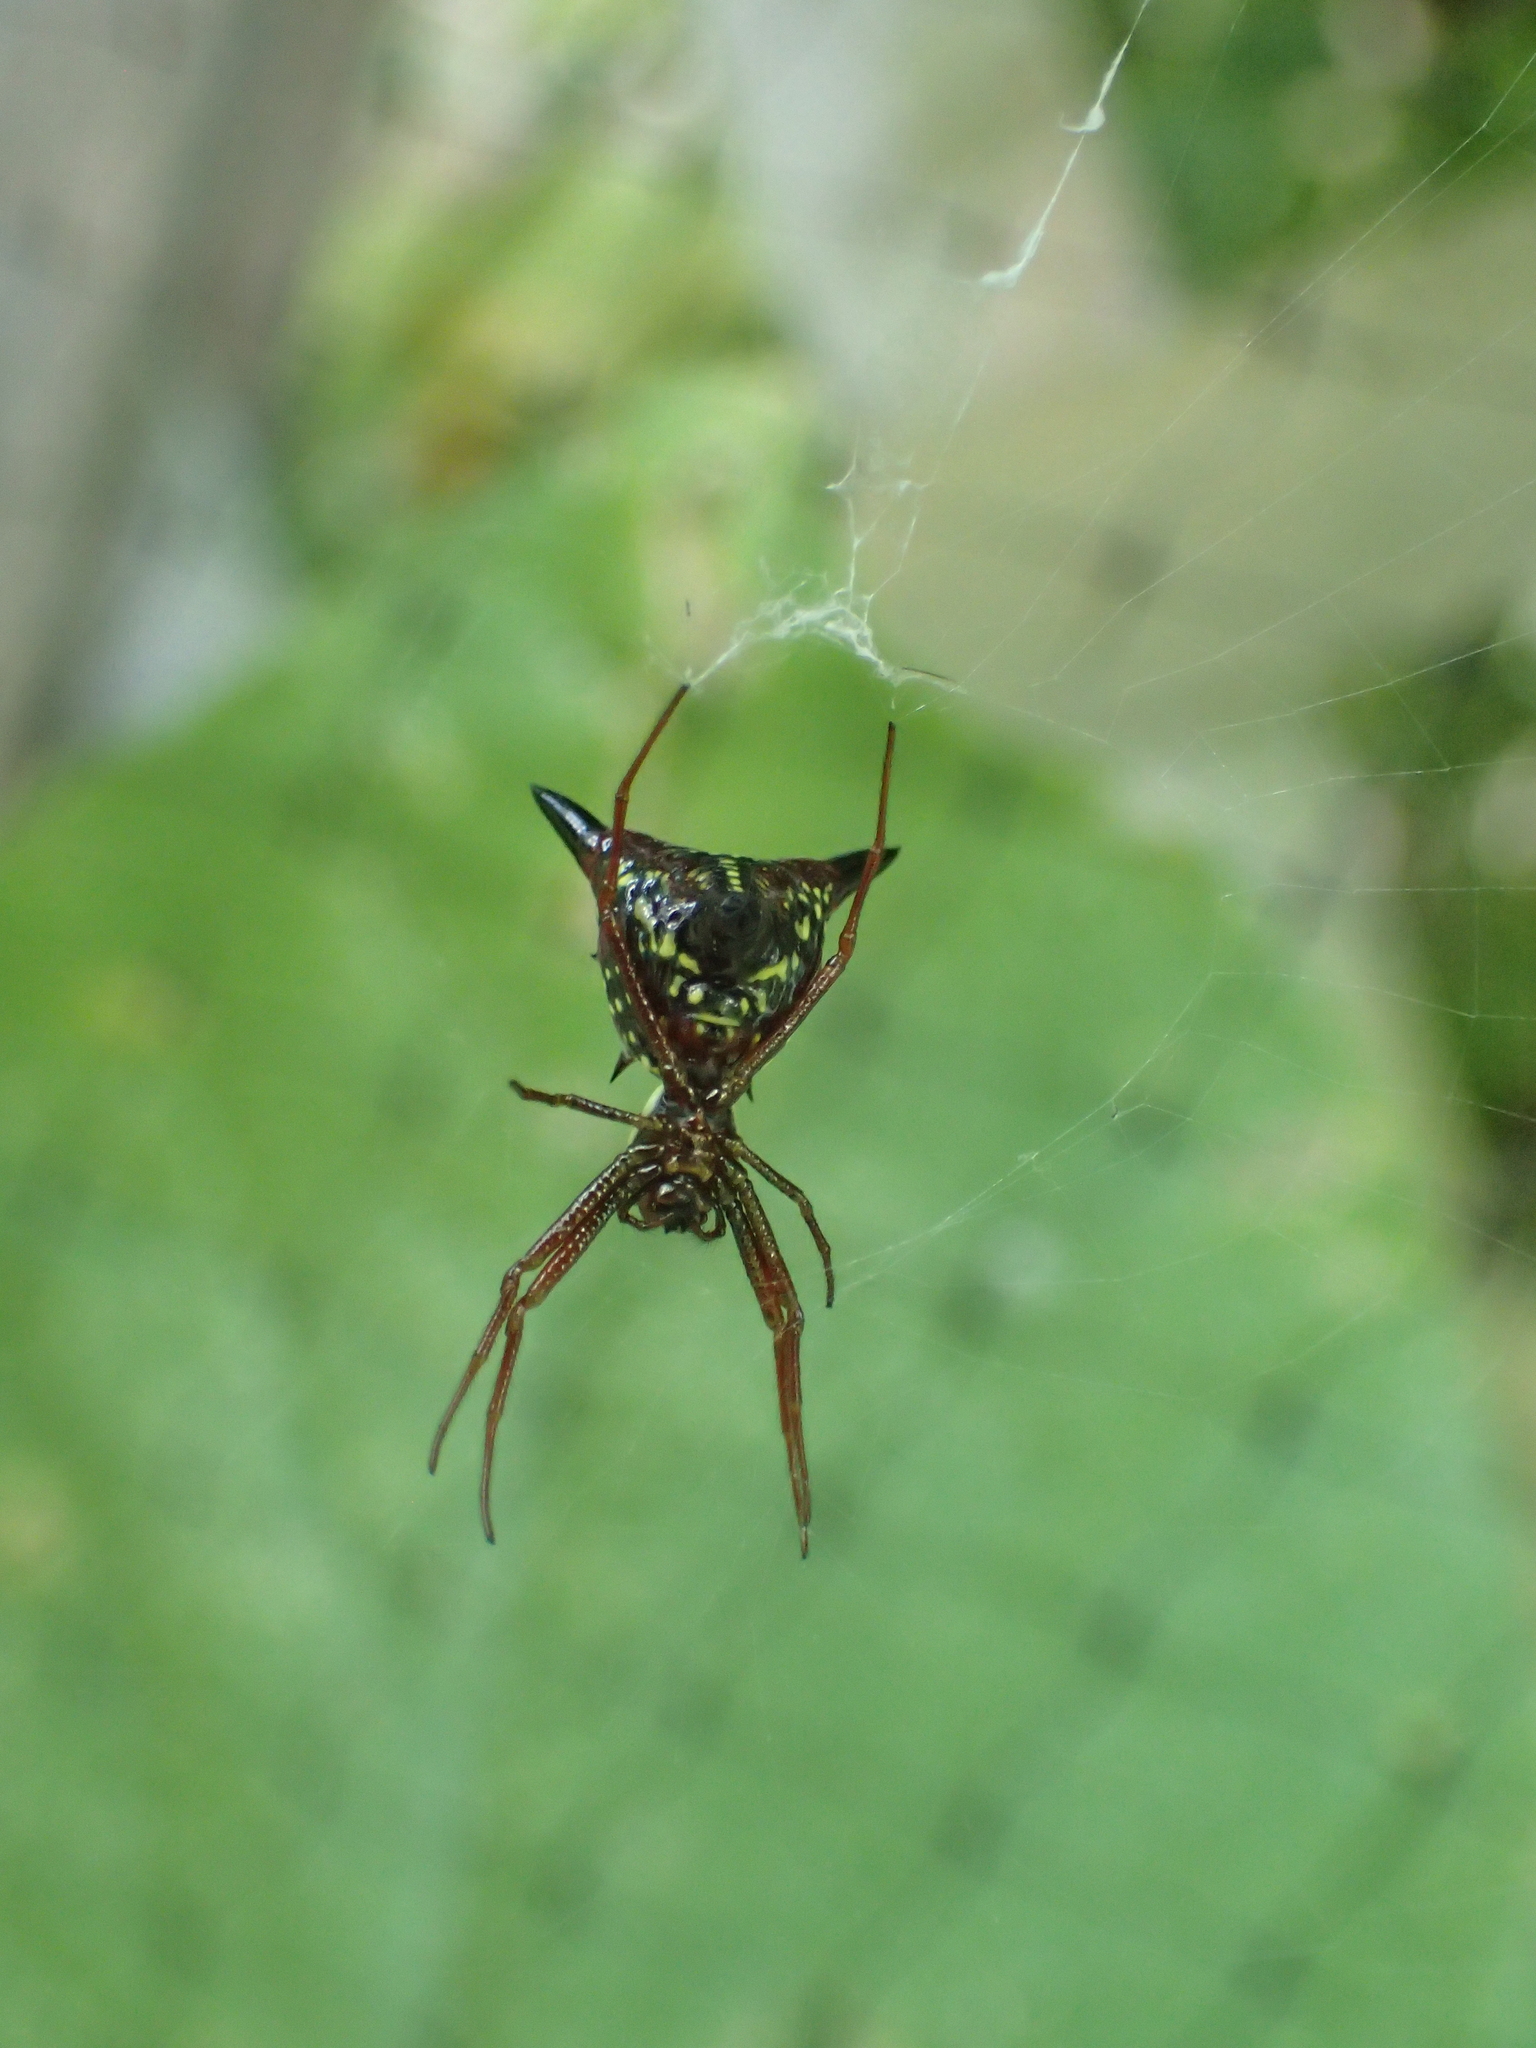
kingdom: Animalia
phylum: Arthropoda
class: Arachnida
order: Araneae
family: Araneidae
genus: Micrathena
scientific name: Micrathena sagittata
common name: Orb weavers
